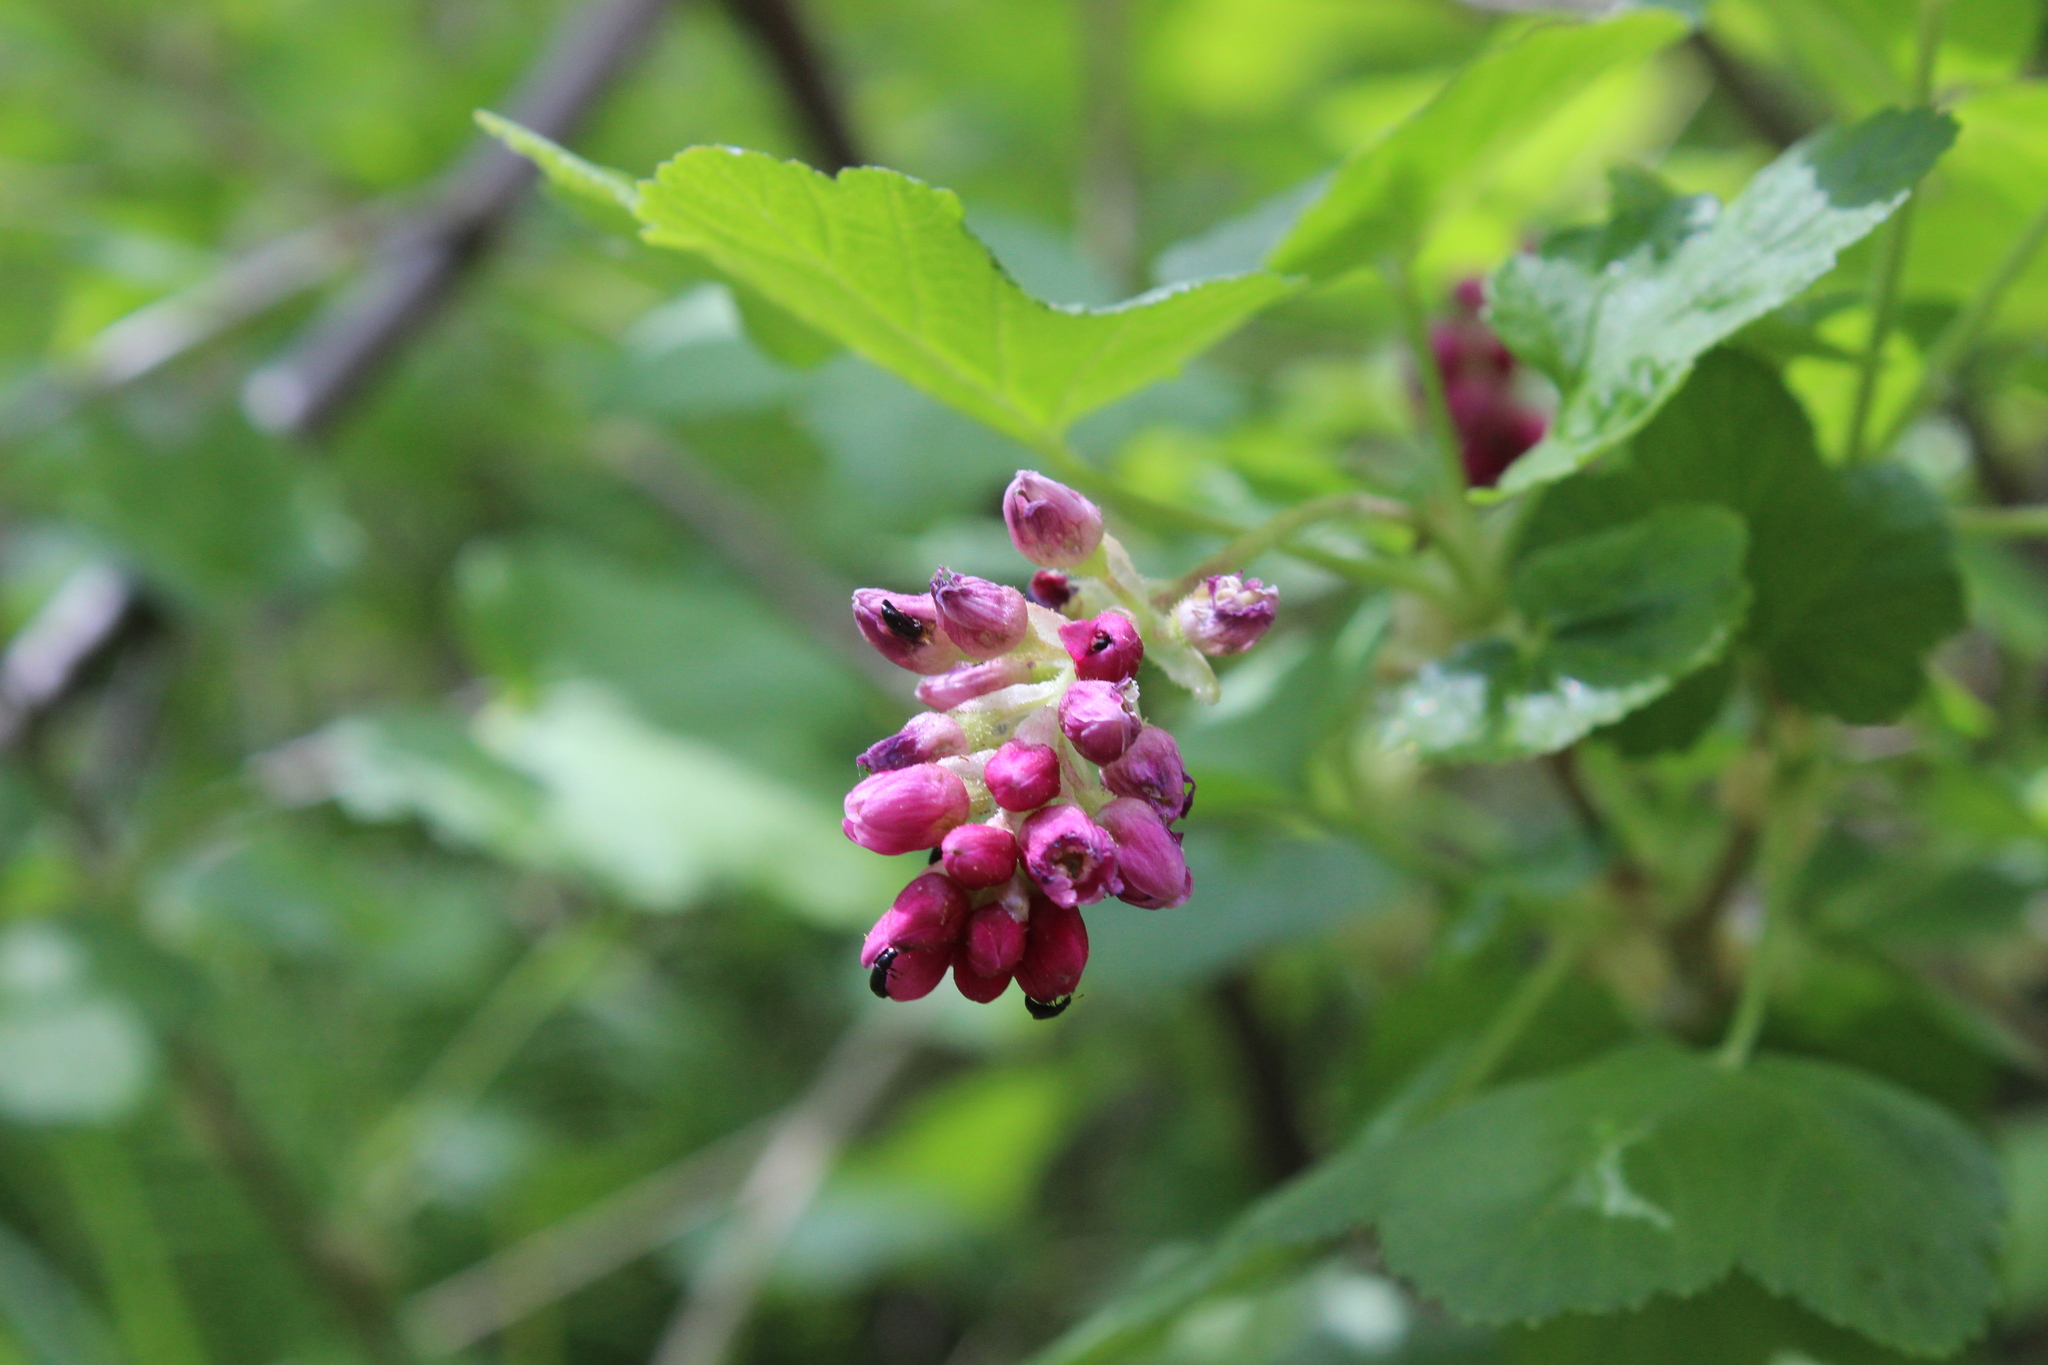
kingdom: Plantae
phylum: Tracheophyta
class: Magnoliopsida
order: Saxifragales
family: Grossulariaceae
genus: Ribes
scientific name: Ribes nevadense
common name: Mountain pink currant
